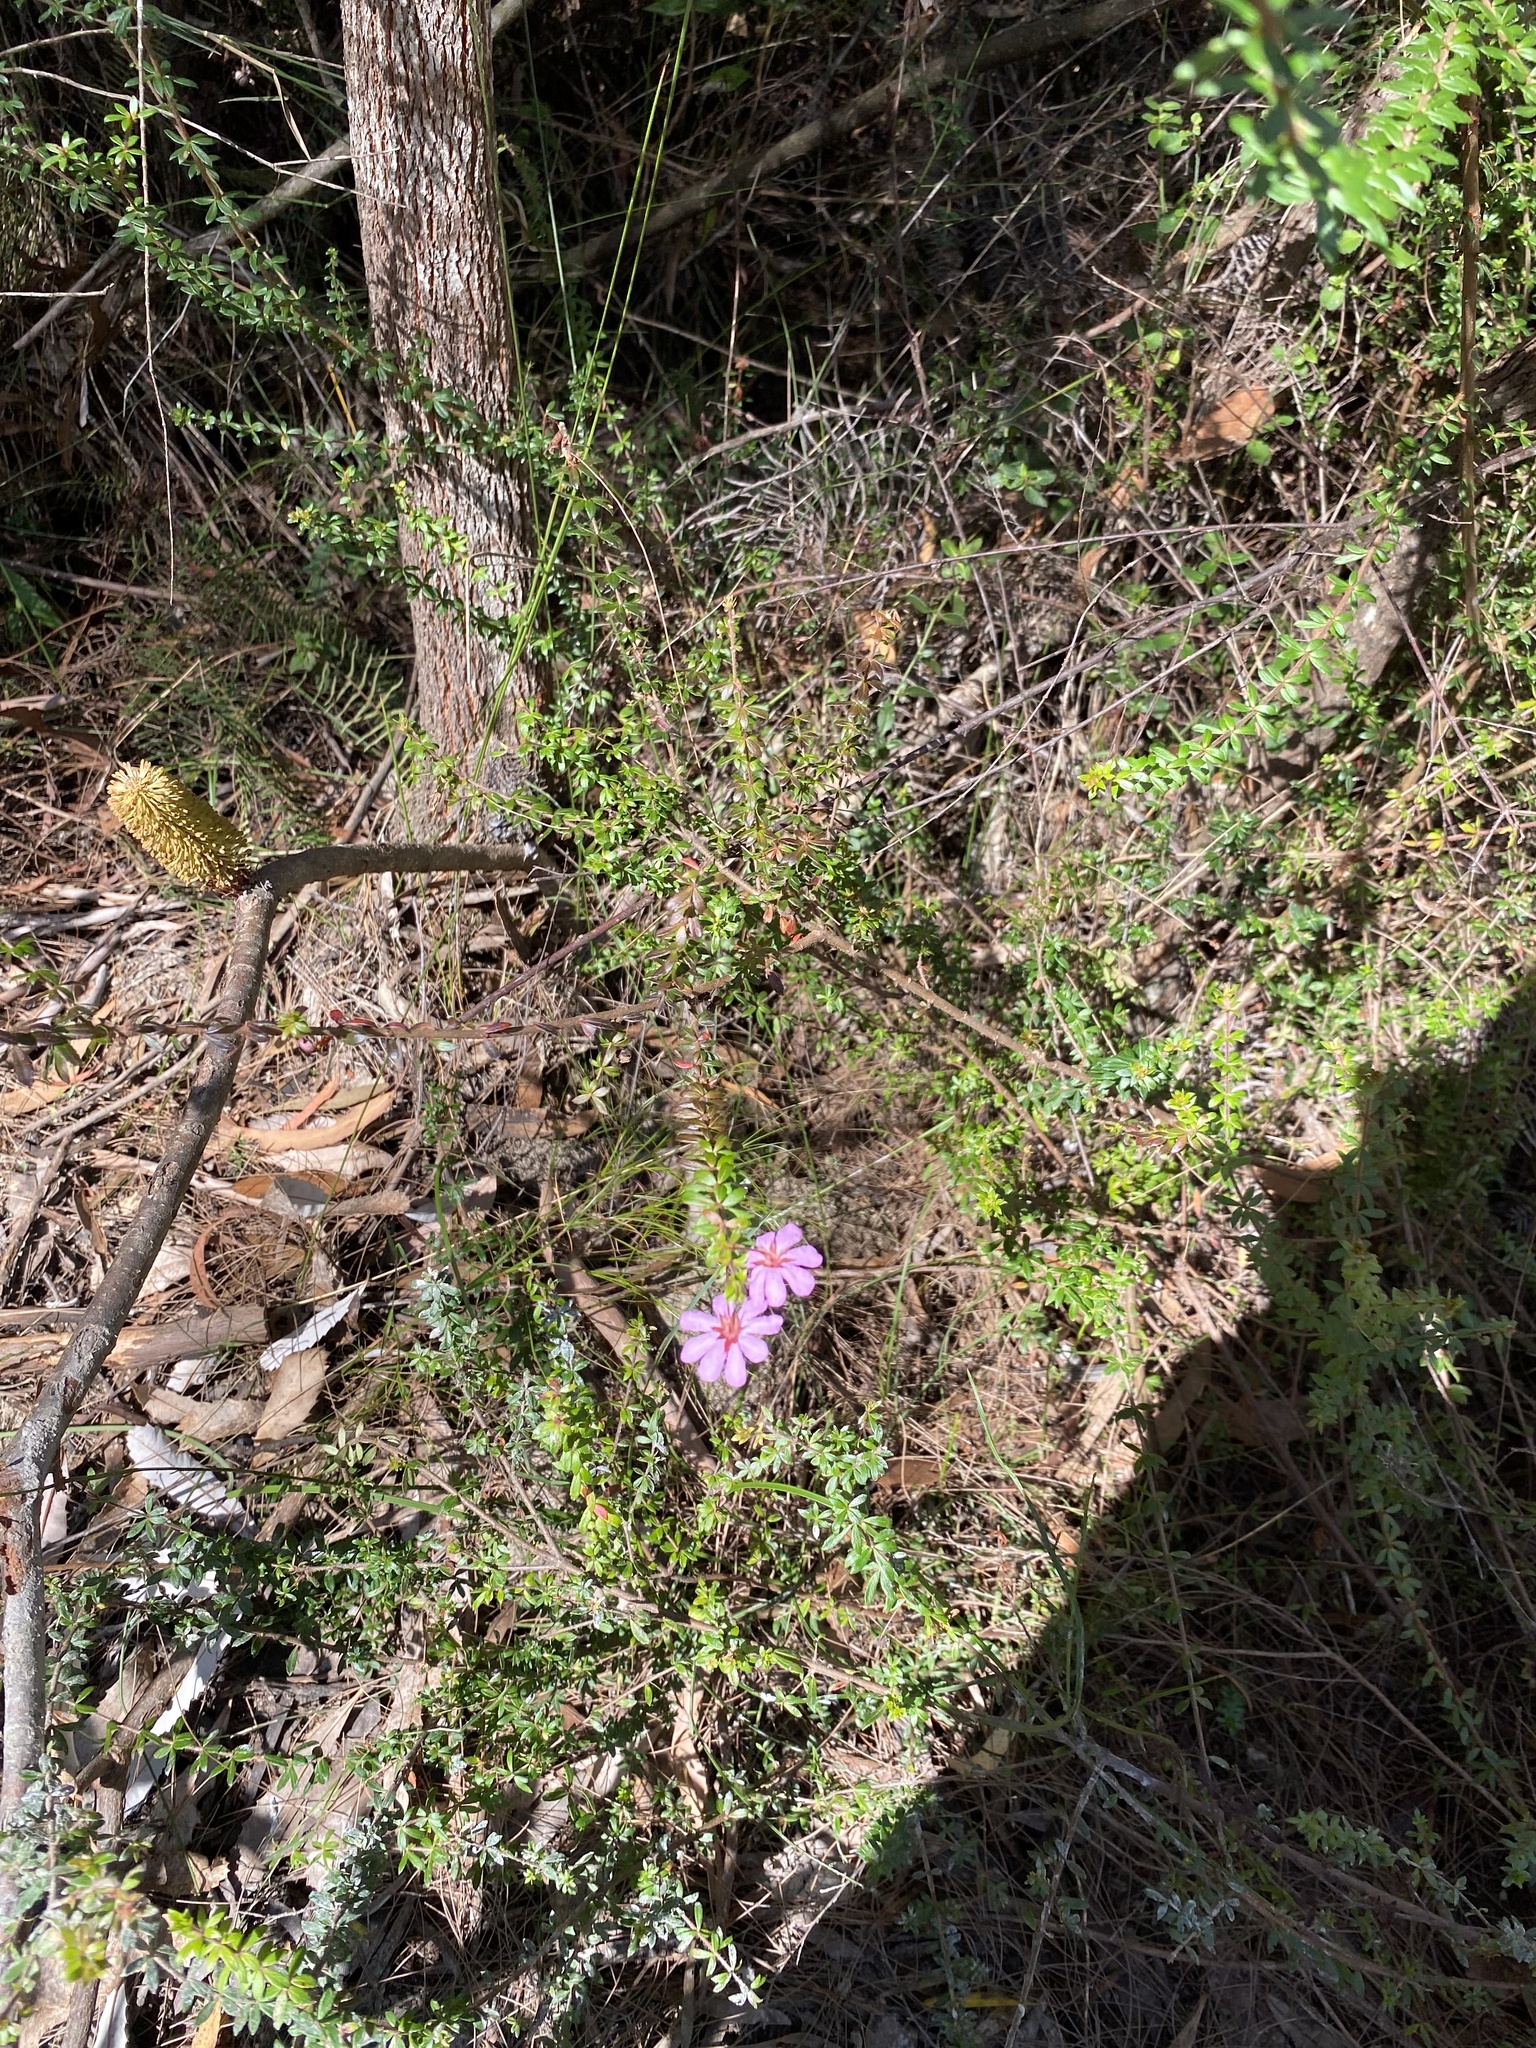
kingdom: Plantae
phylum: Tracheophyta
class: Magnoliopsida
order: Oxalidales
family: Cunoniaceae
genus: Bauera
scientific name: Bauera rubioides
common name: River-rose
